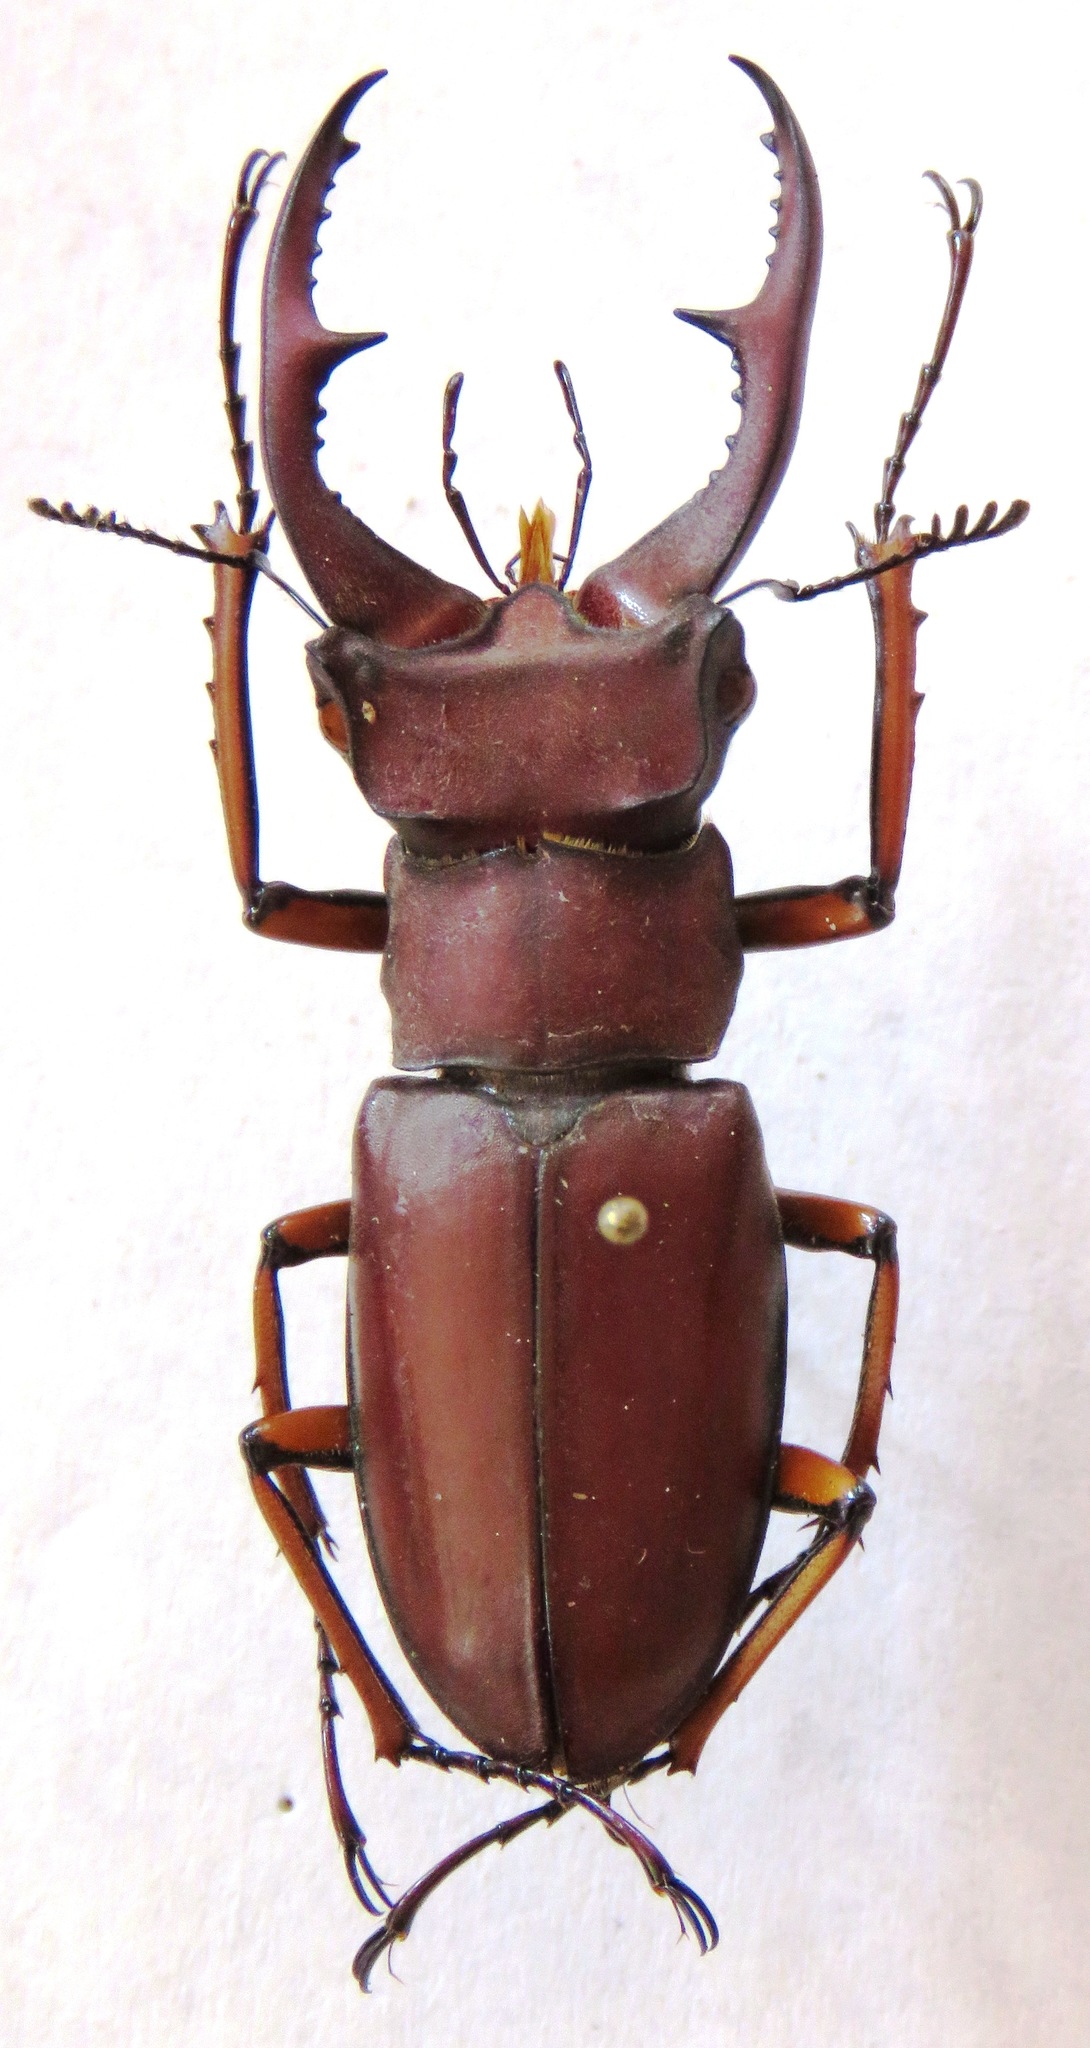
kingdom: Animalia
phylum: Arthropoda
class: Insecta
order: Coleoptera
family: Lucanidae
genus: Lucanus
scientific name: Lucanus marazziorum
